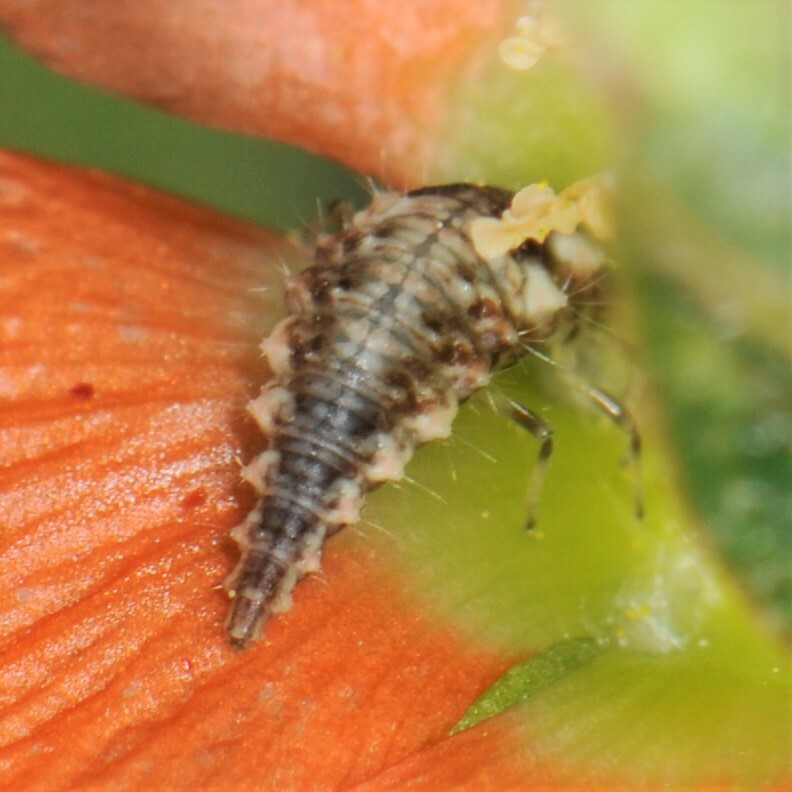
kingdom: Animalia
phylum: Arthropoda
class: Insecta
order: Neuroptera
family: Chrysopidae
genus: Chrysoperla
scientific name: Chrysoperla
